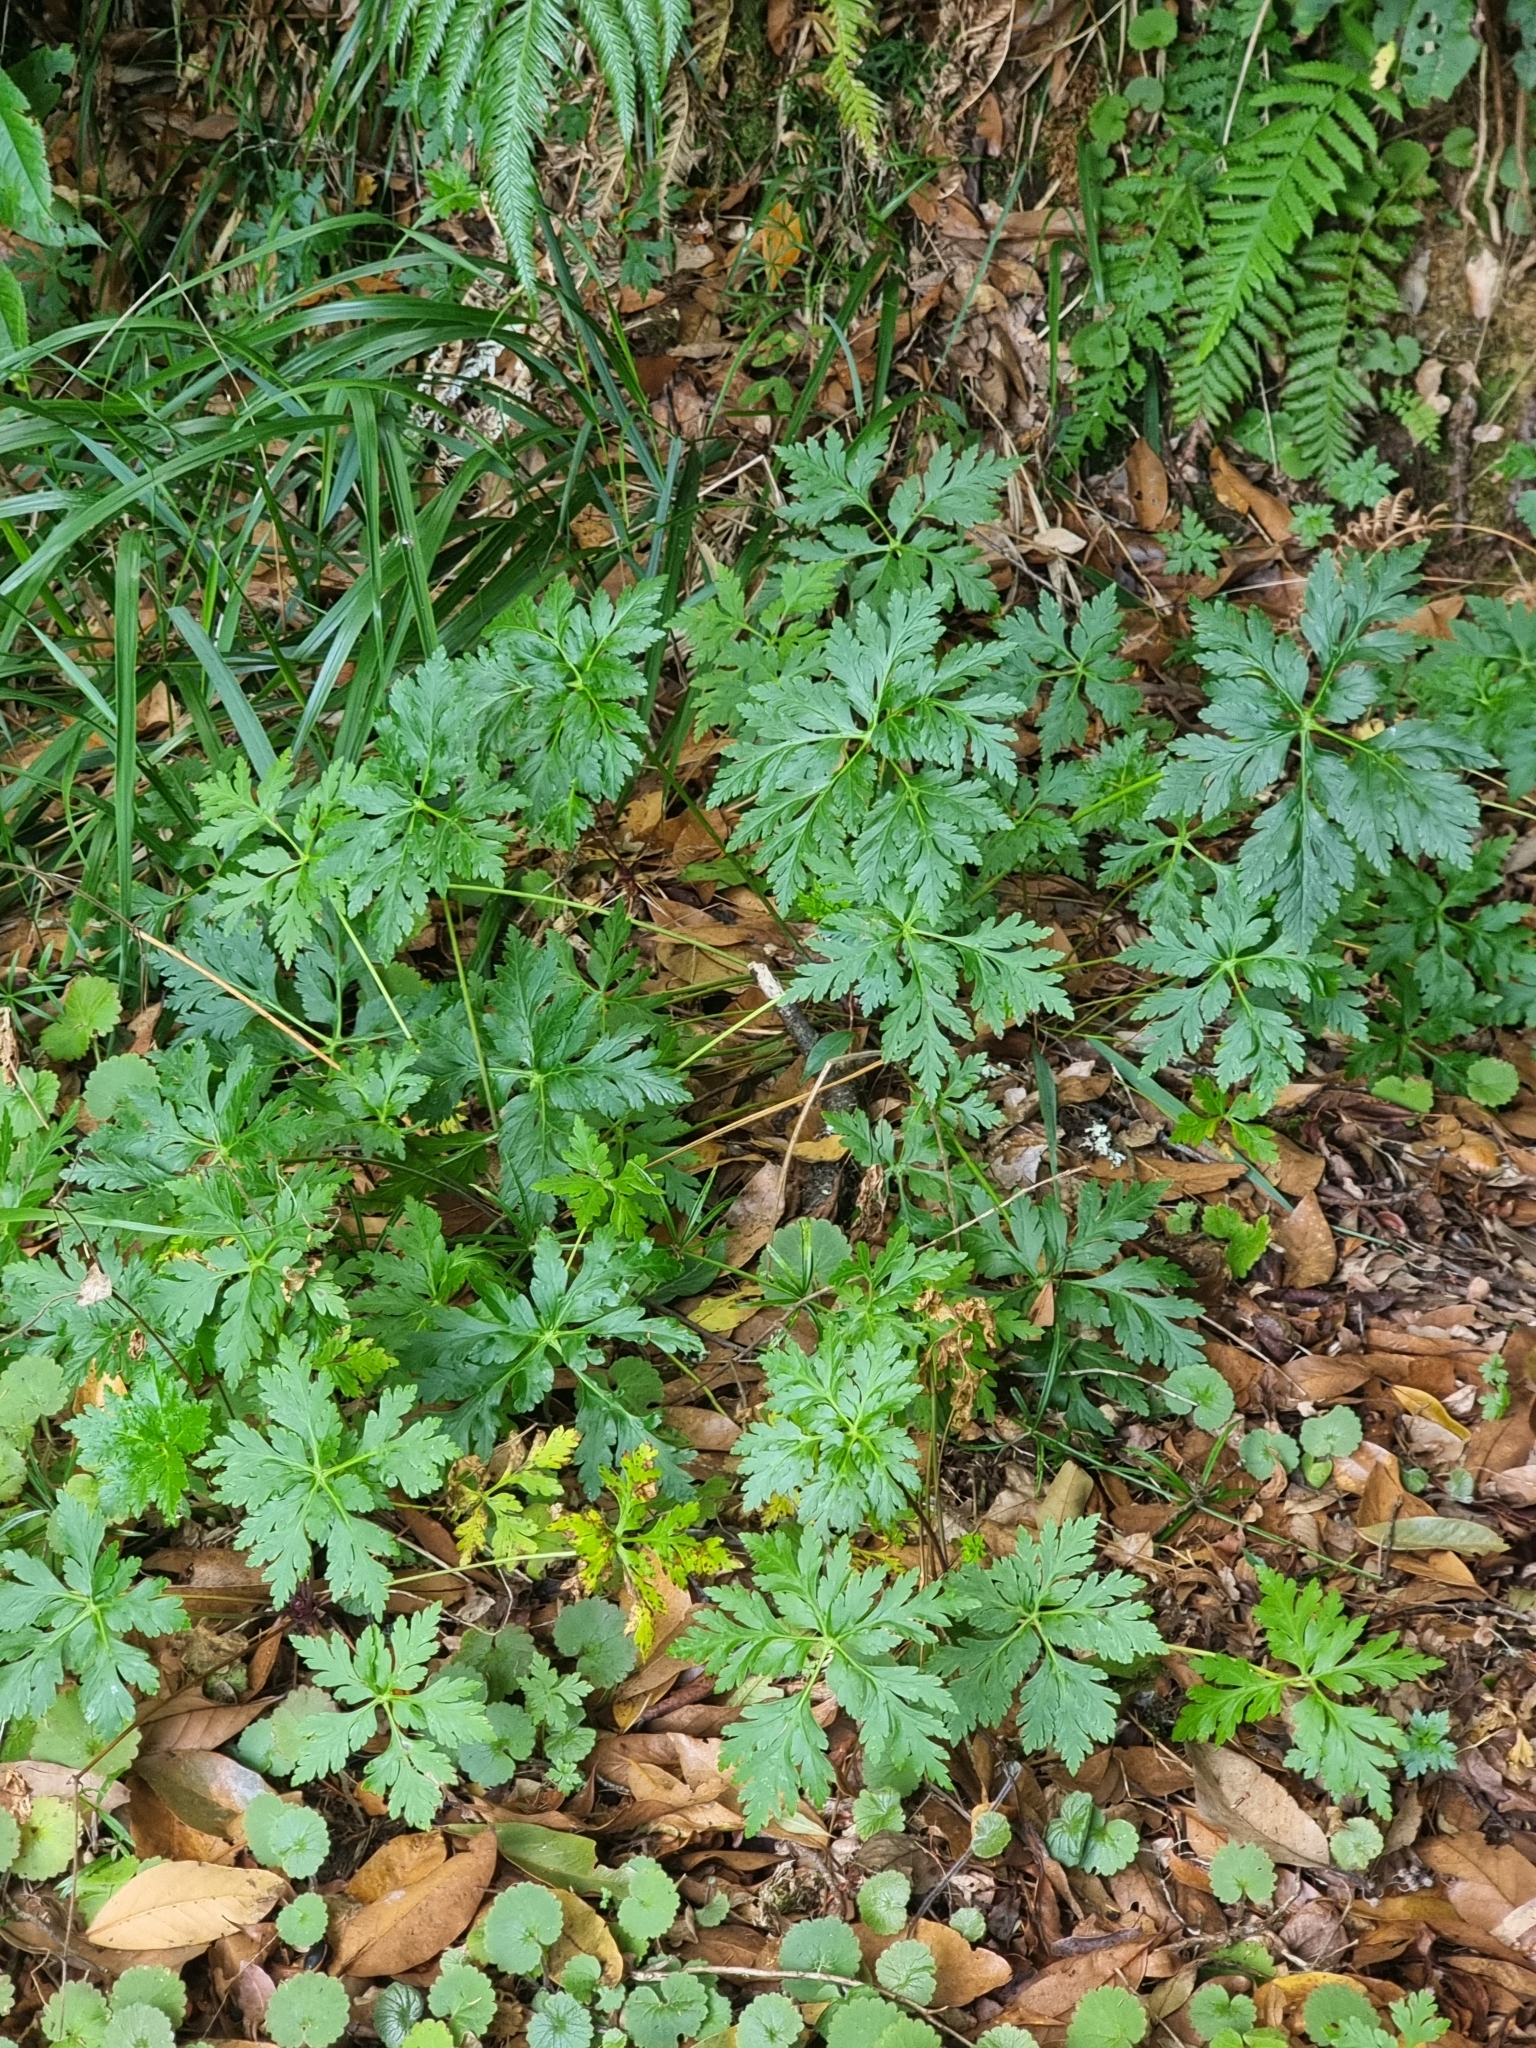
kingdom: Plantae
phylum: Tracheophyta
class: Magnoliopsida
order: Geraniales
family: Geraniaceae
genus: Geranium
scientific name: Geranium palmatum
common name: Canary island geranium
